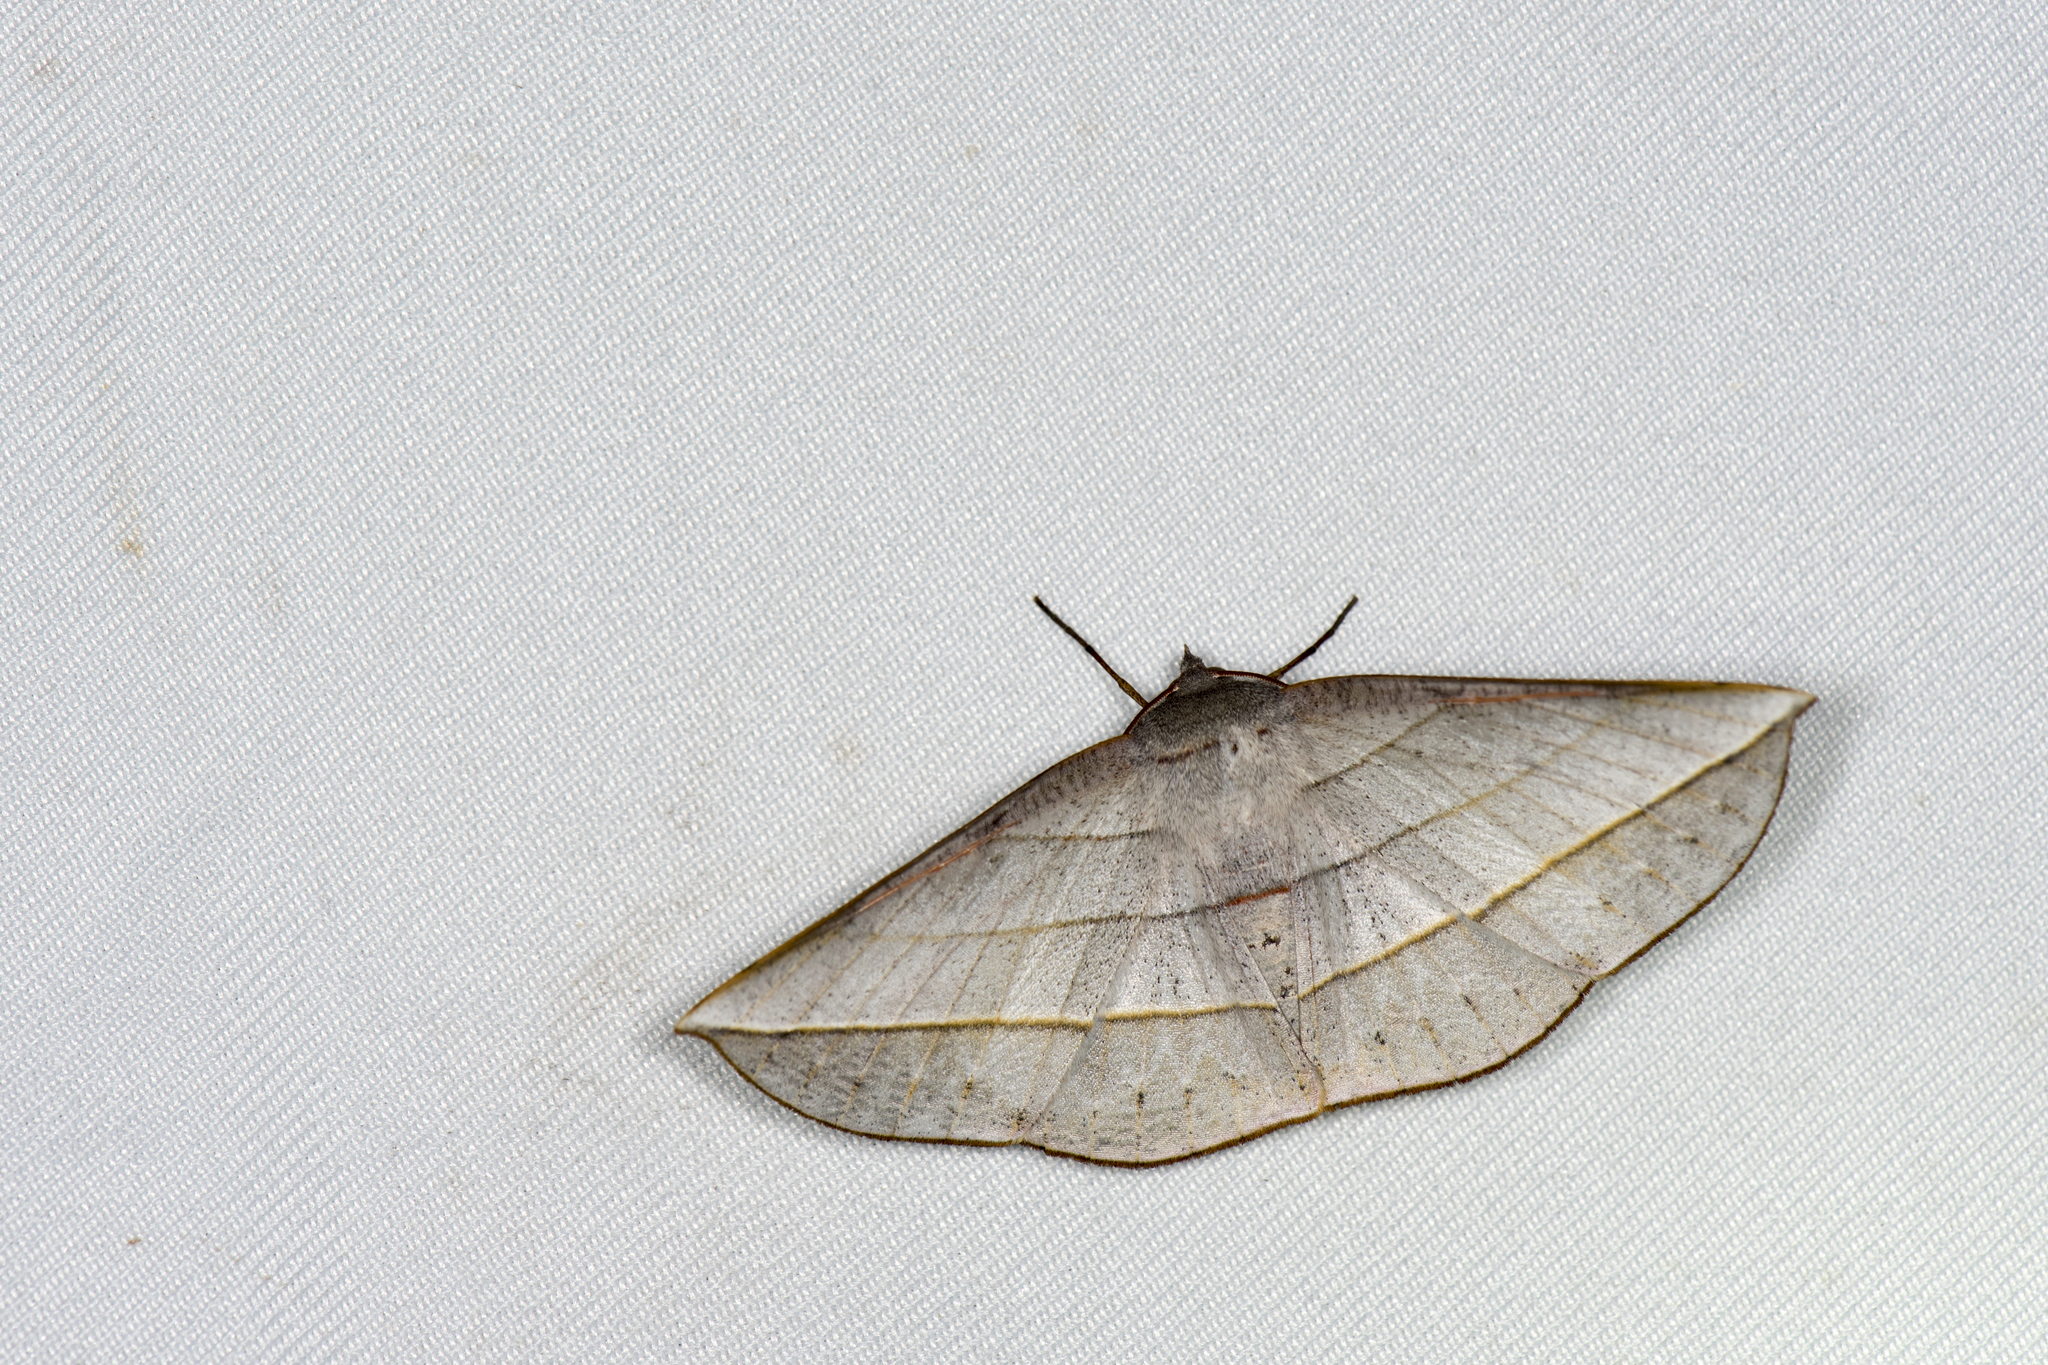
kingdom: Animalia
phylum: Arthropoda
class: Insecta
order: Lepidoptera
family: Geometridae
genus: Sarcinodes
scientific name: Sarcinodes aequilinearia
